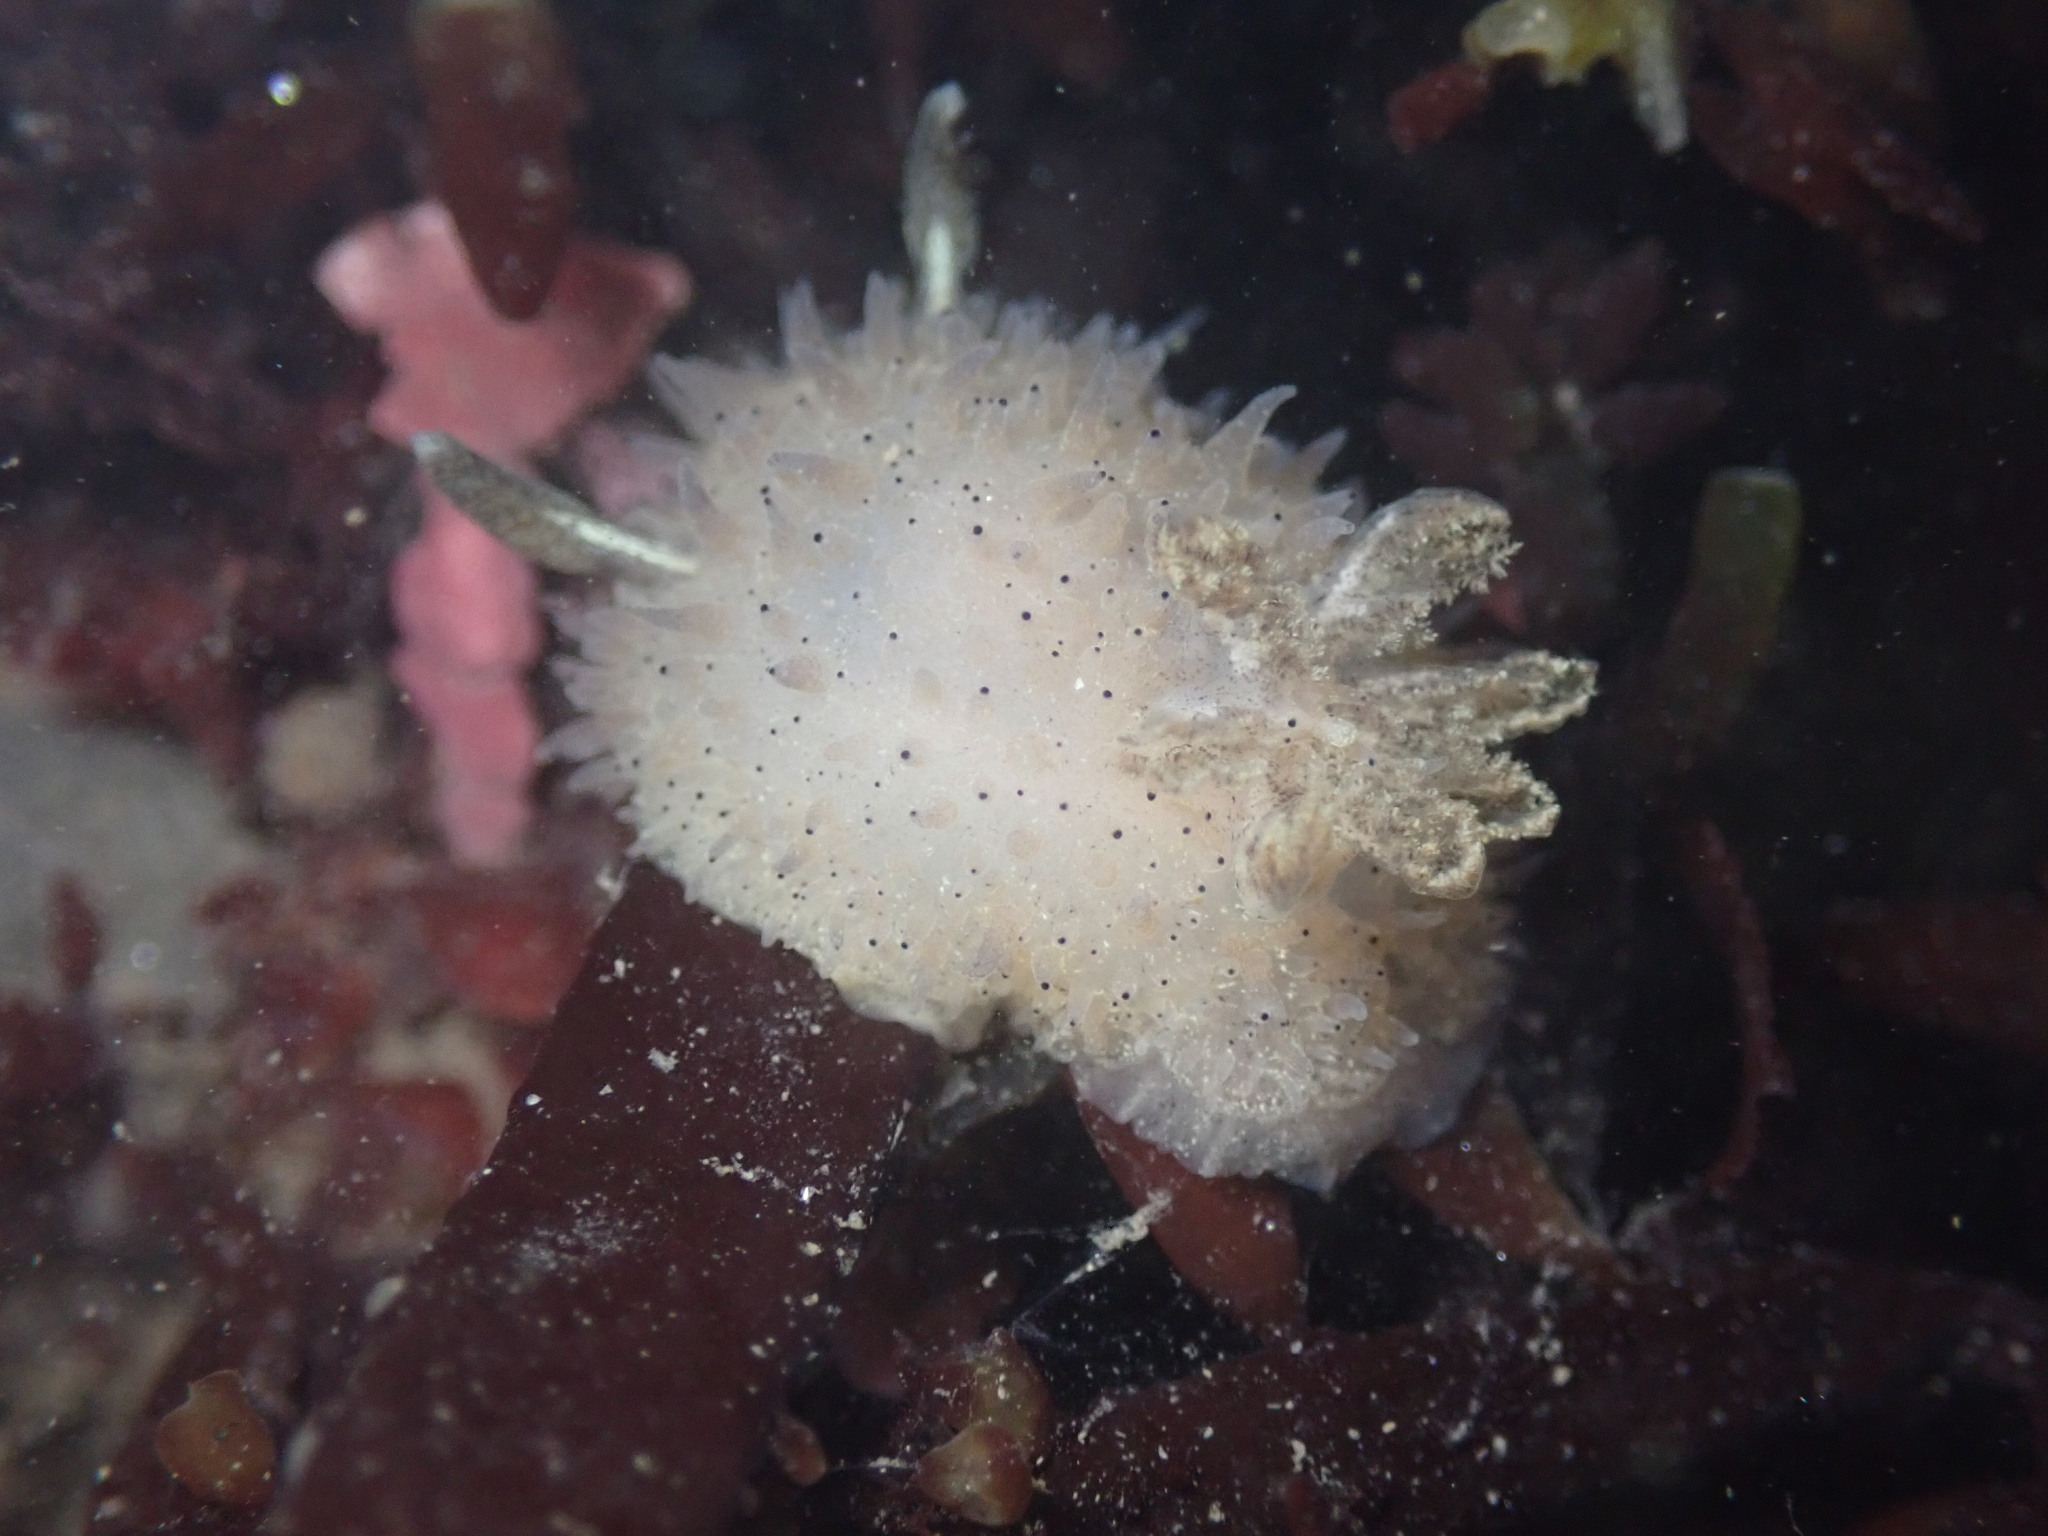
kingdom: Animalia
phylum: Mollusca
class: Gastropoda
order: Nudibranchia
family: Onchidorididae
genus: Acanthodoris
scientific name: Acanthodoris rhodoceras
